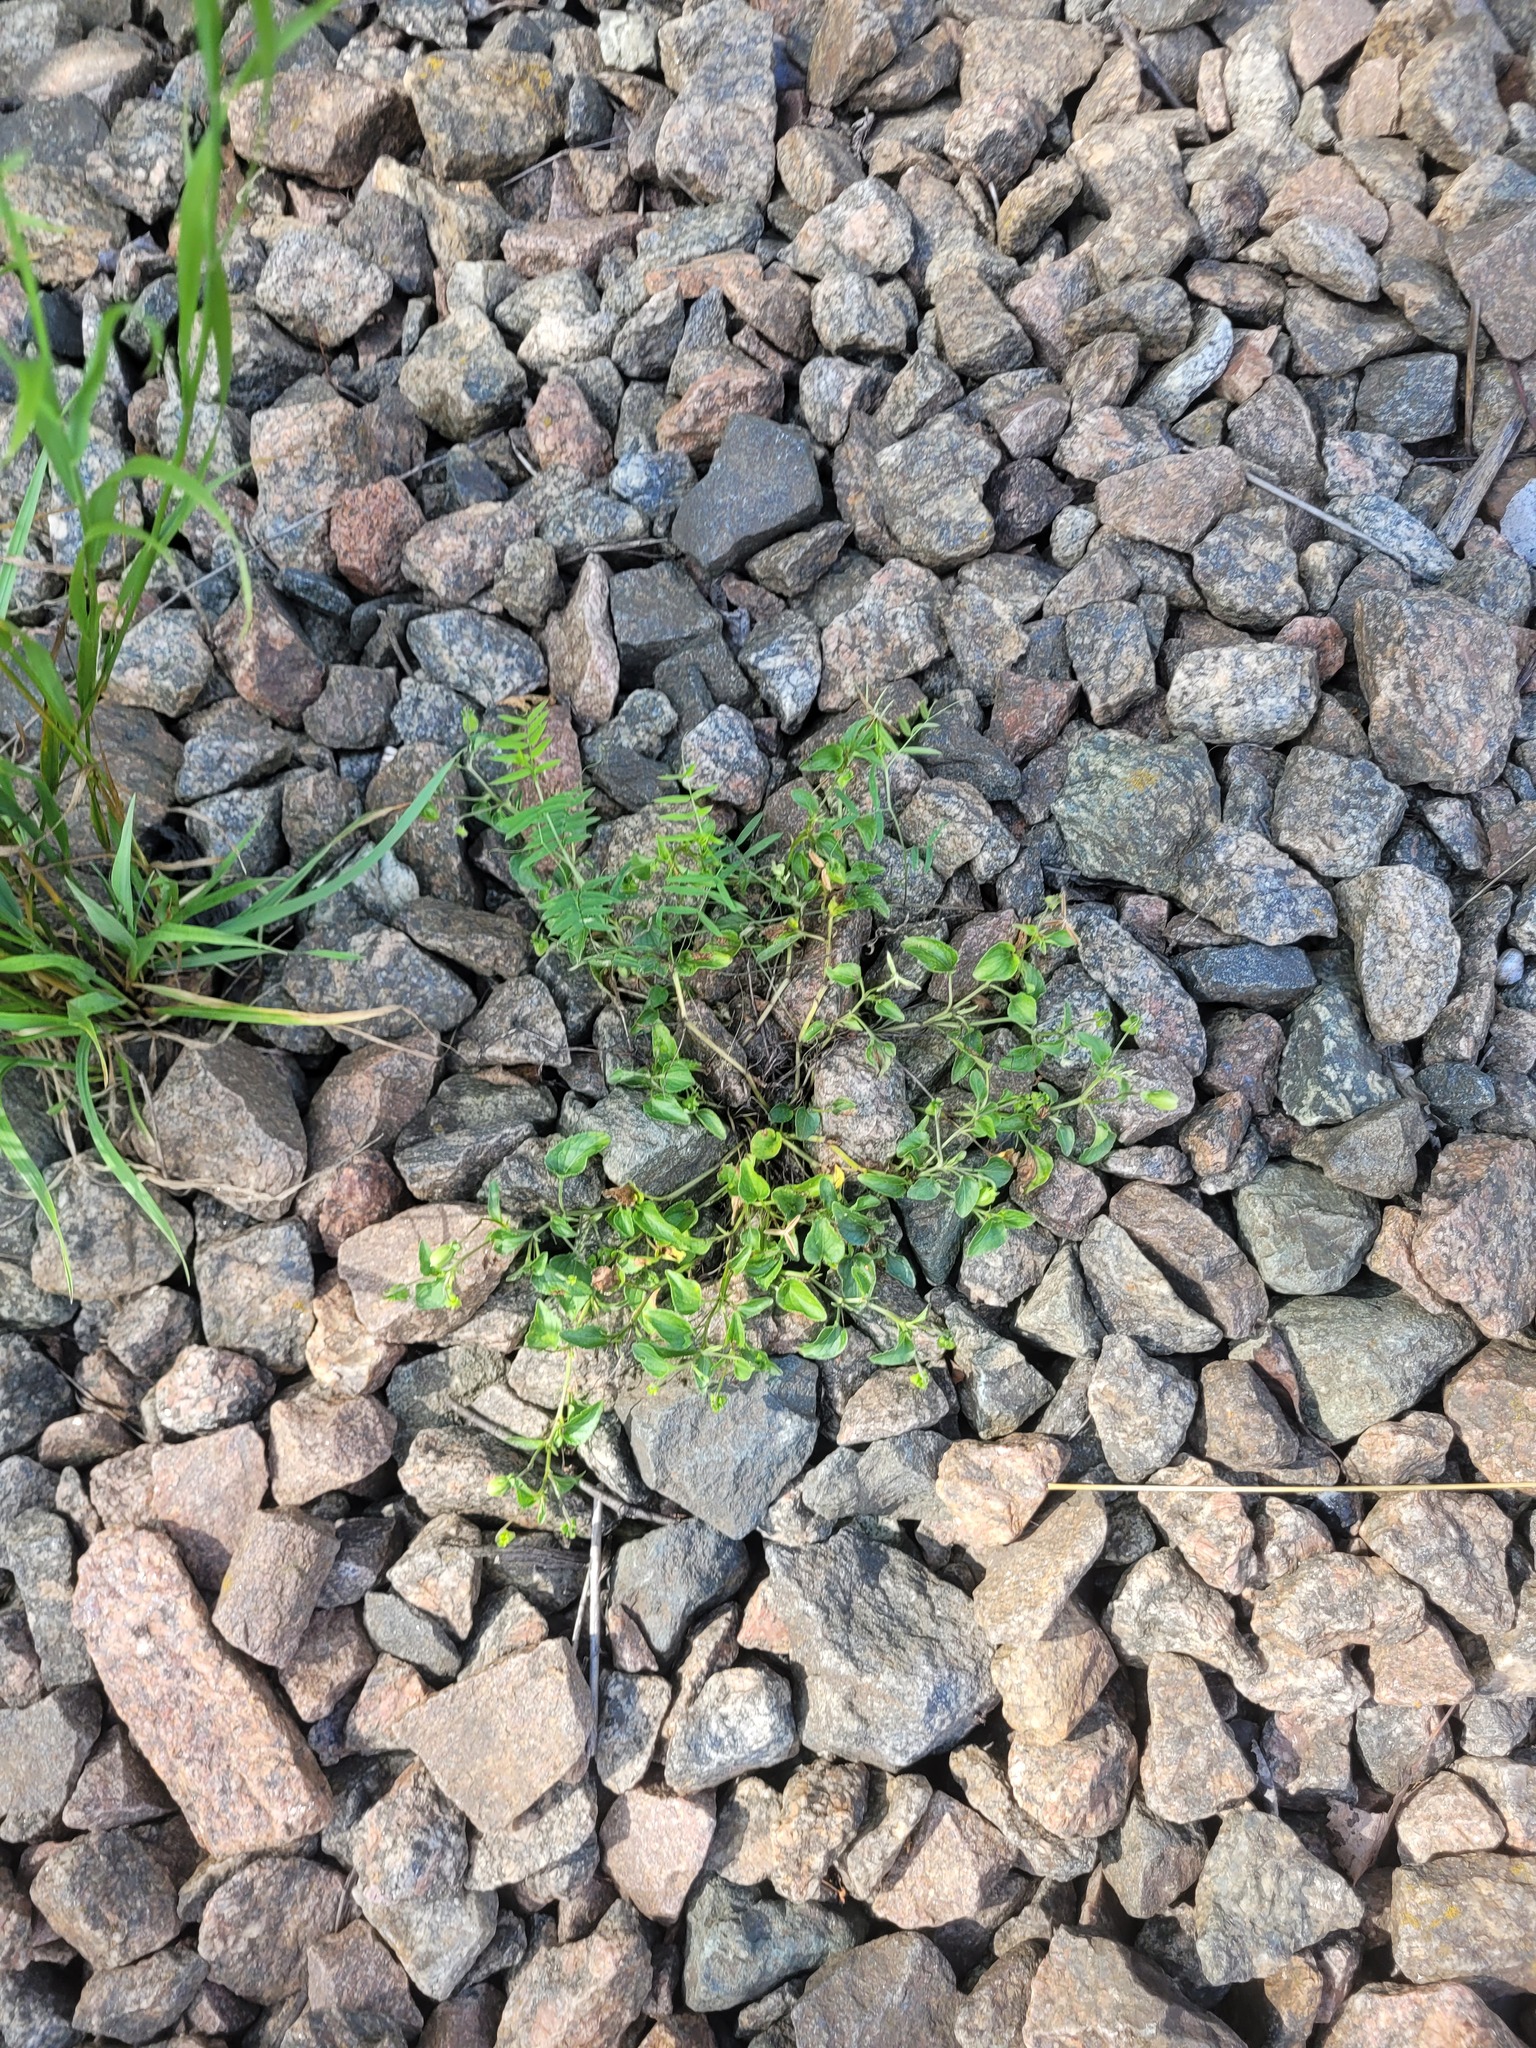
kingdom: Plantae
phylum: Tracheophyta
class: Magnoliopsida
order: Malpighiales
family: Violaceae
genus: Viola
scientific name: Viola canina
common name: Heath dog-violet
